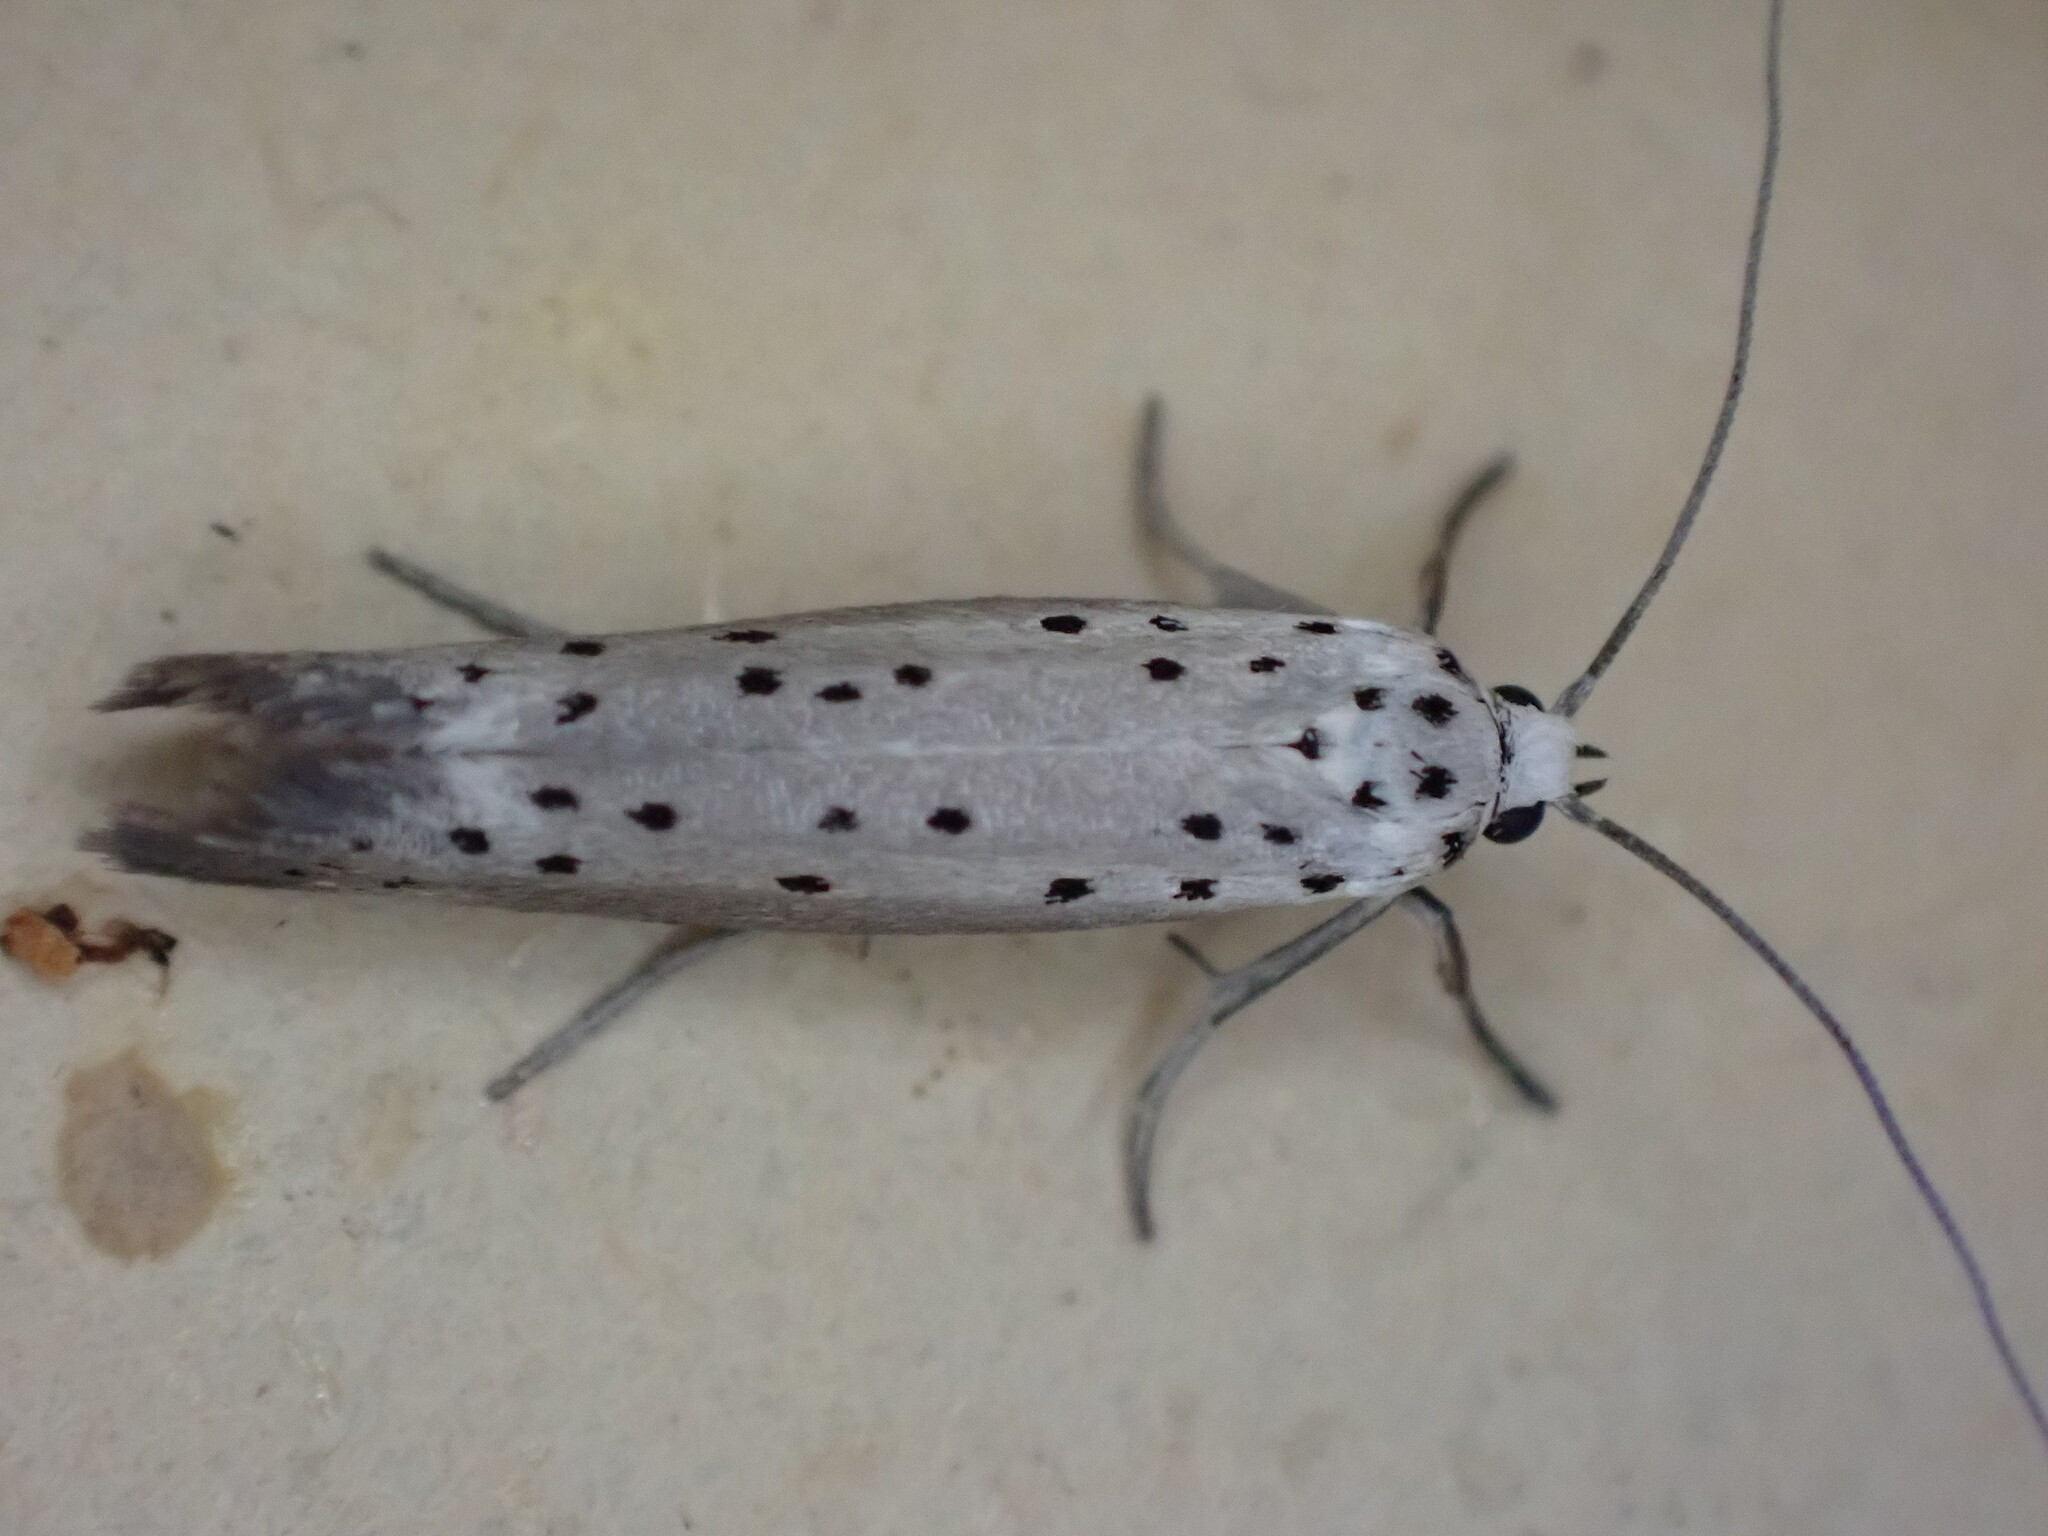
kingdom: Animalia
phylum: Arthropoda
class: Insecta
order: Lepidoptera
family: Yponomeutidae
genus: Yponomeuta
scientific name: Yponomeuta padella
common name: Orchard ermine
